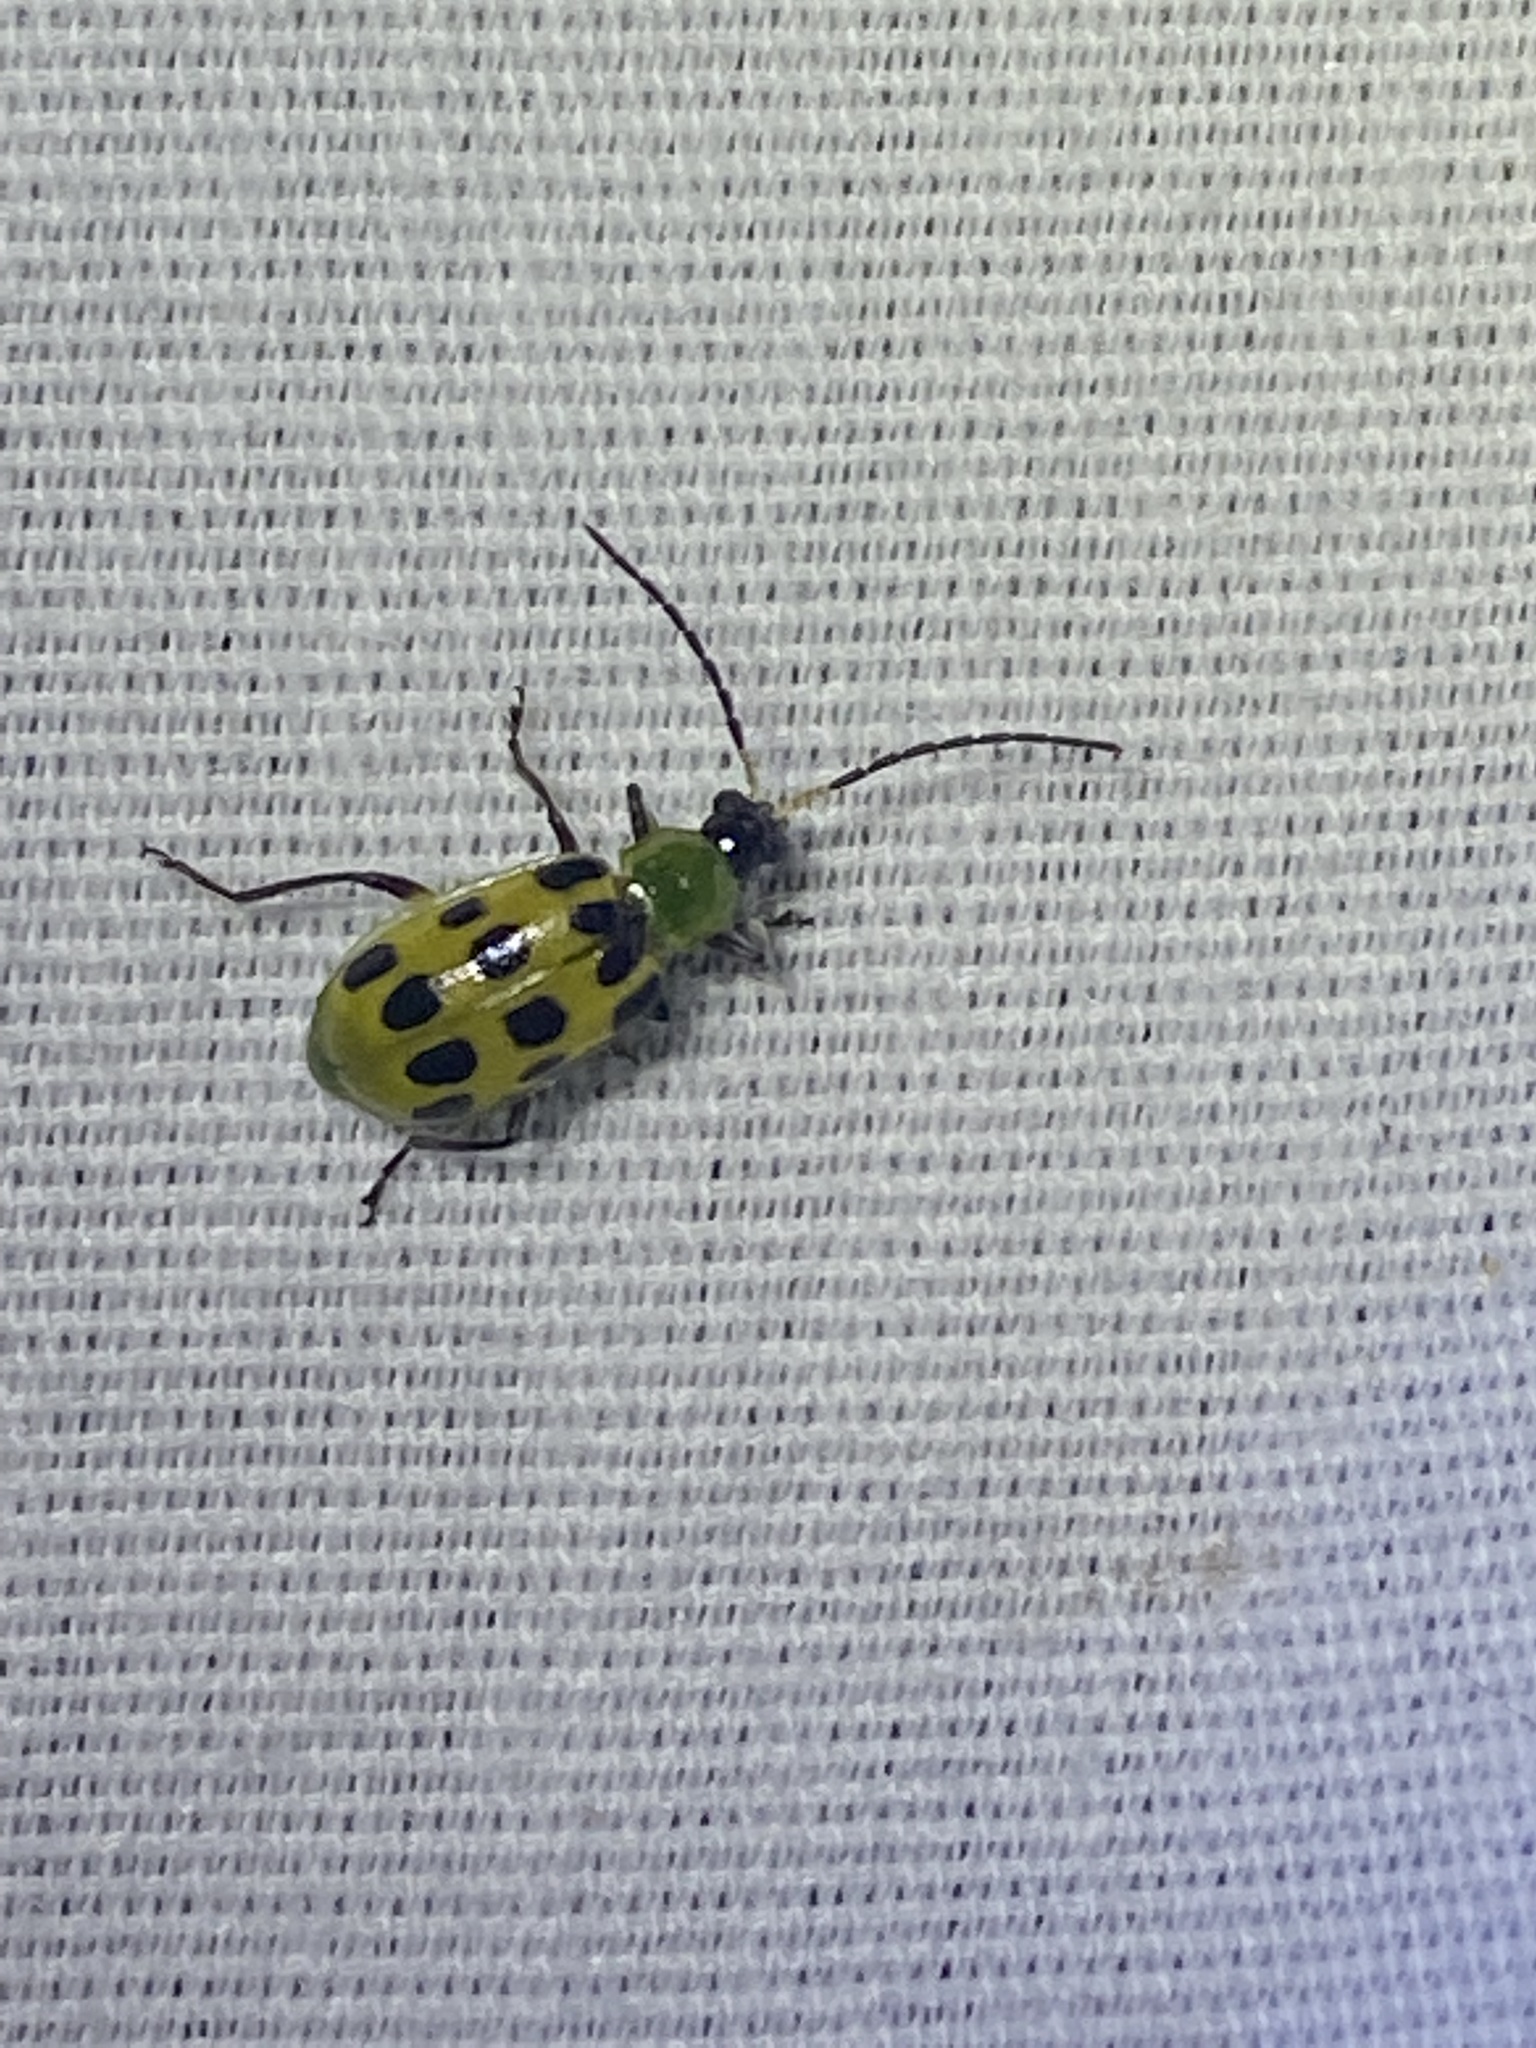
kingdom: Animalia
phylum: Arthropoda
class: Insecta
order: Coleoptera
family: Chrysomelidae
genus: Diabrotica
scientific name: Diabrotica undecimpunctata
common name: Spotted cucumber beetle
